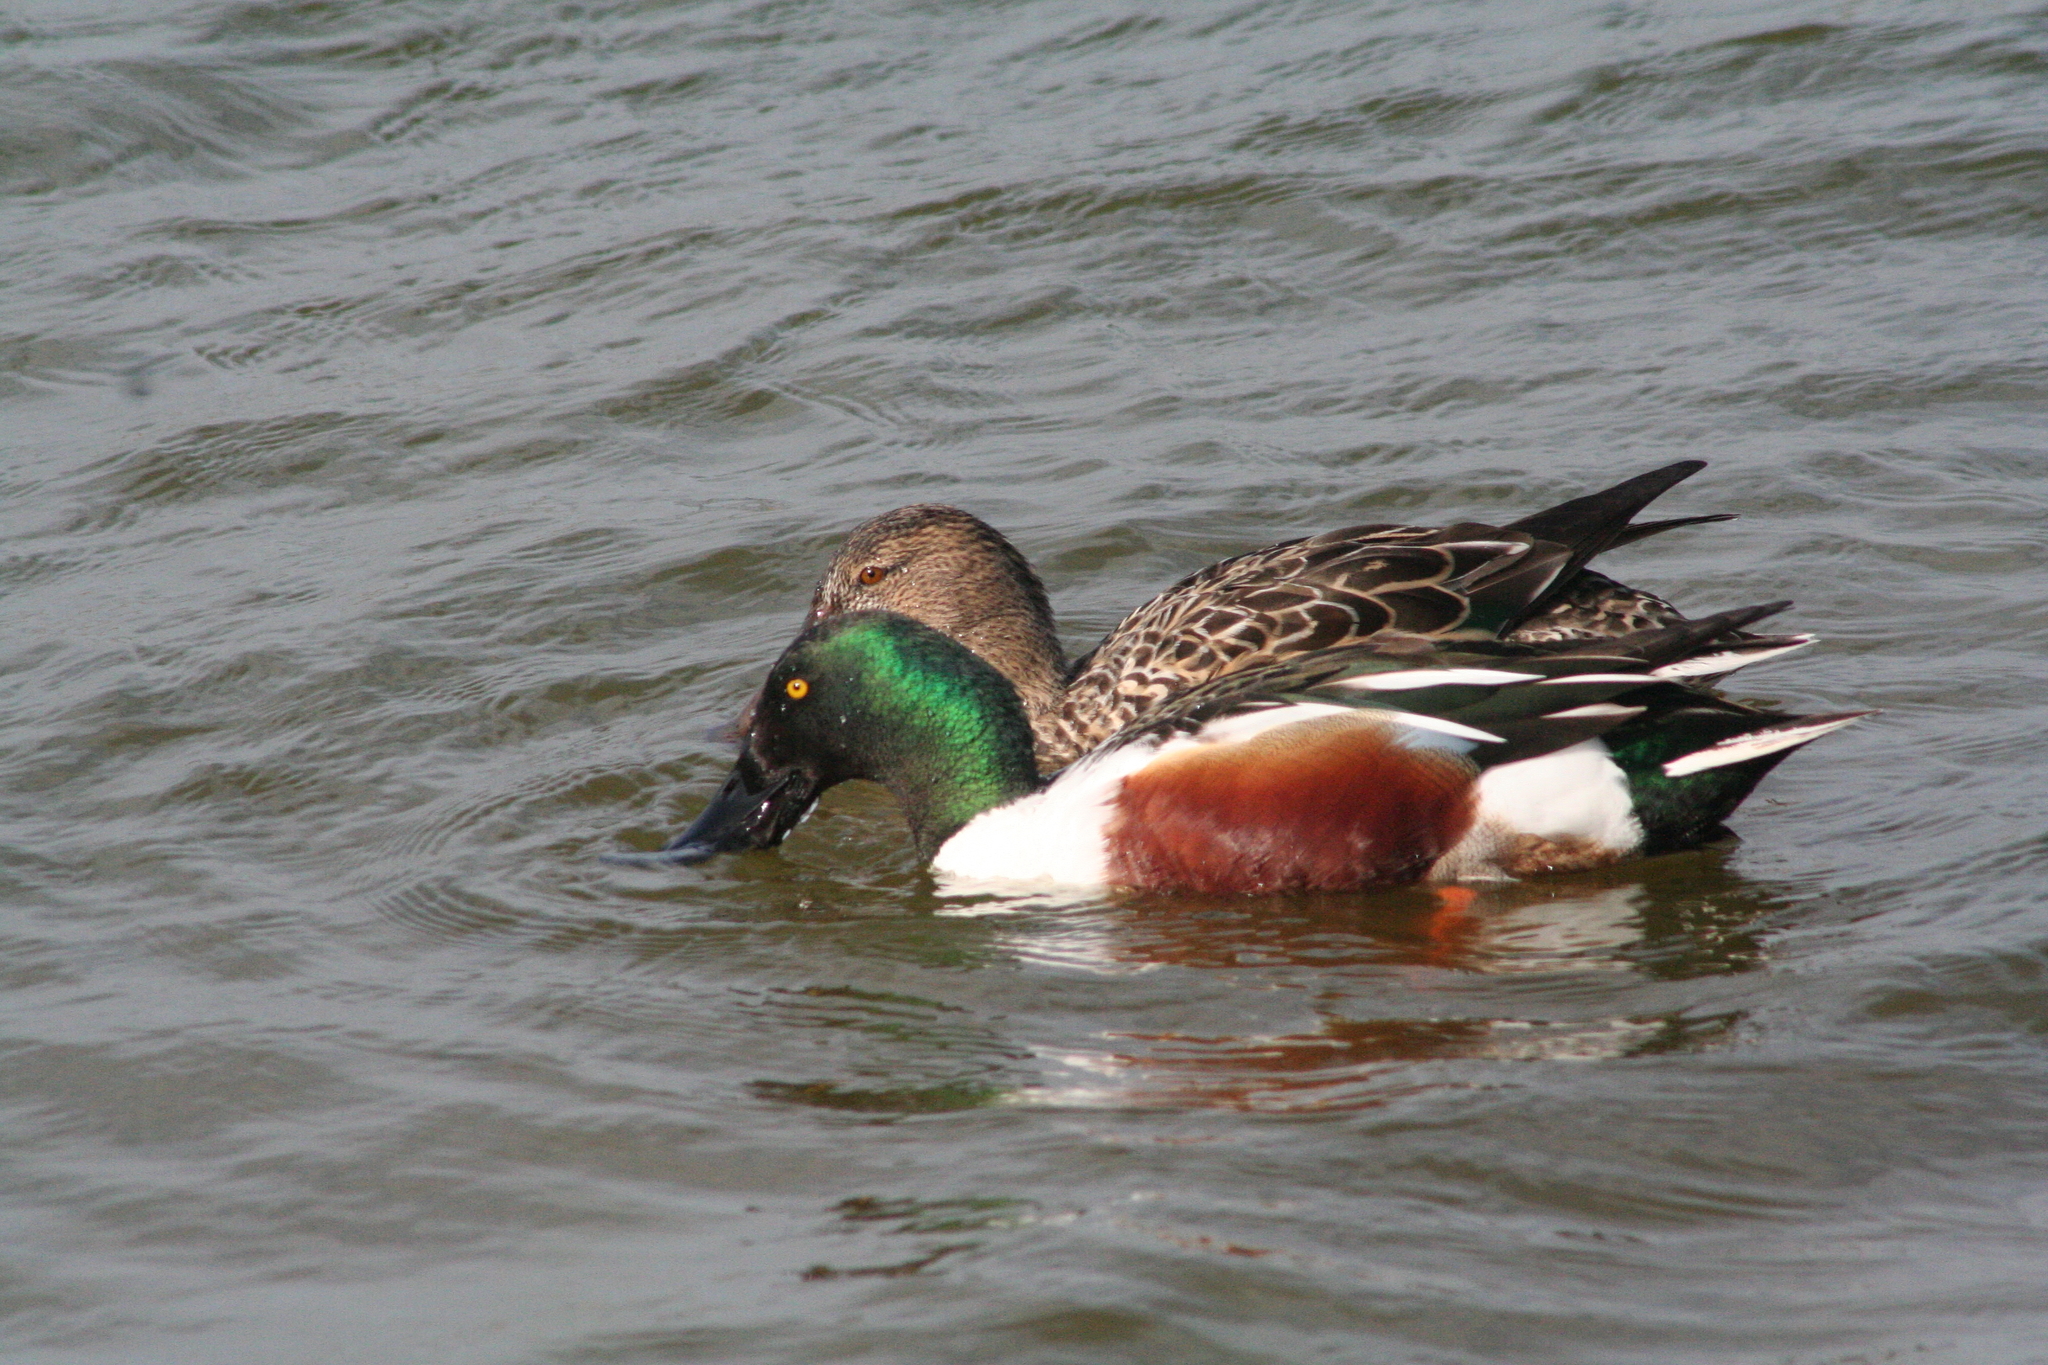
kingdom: Animalia
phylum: Chordata
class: Aves
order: Anseriformes
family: Anatidae
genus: Spatula
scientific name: Spatula clypeata
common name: Northern shoveler
